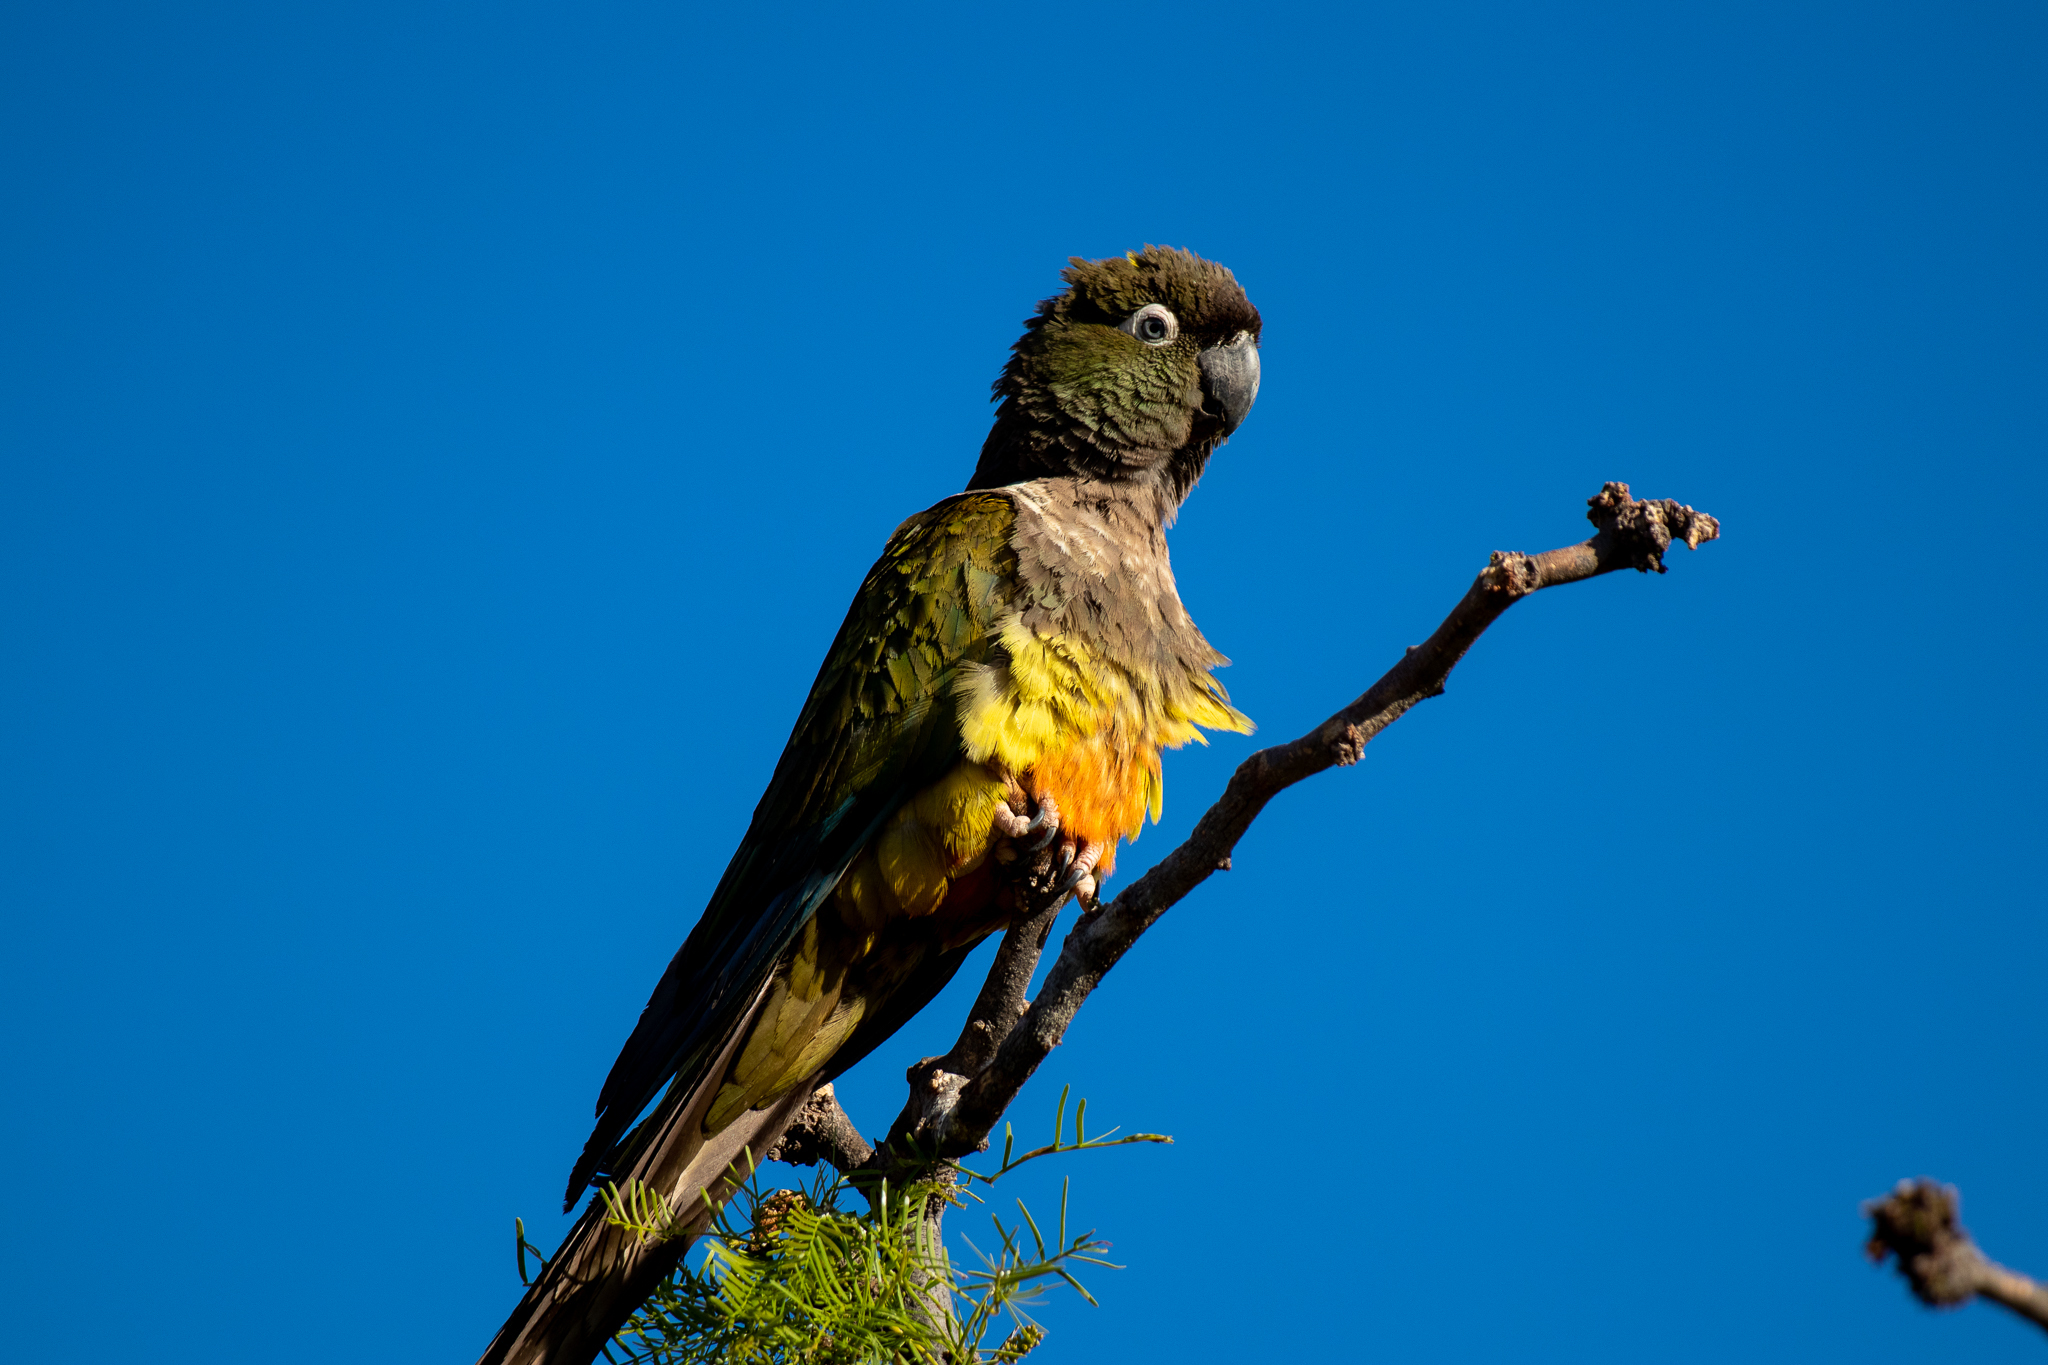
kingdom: Animalia
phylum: Chordata
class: Aves
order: Psittaciformes
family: Psittacidae
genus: Cyanoliseus
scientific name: Cyanoliseus patagonus
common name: Burrowing parrot
